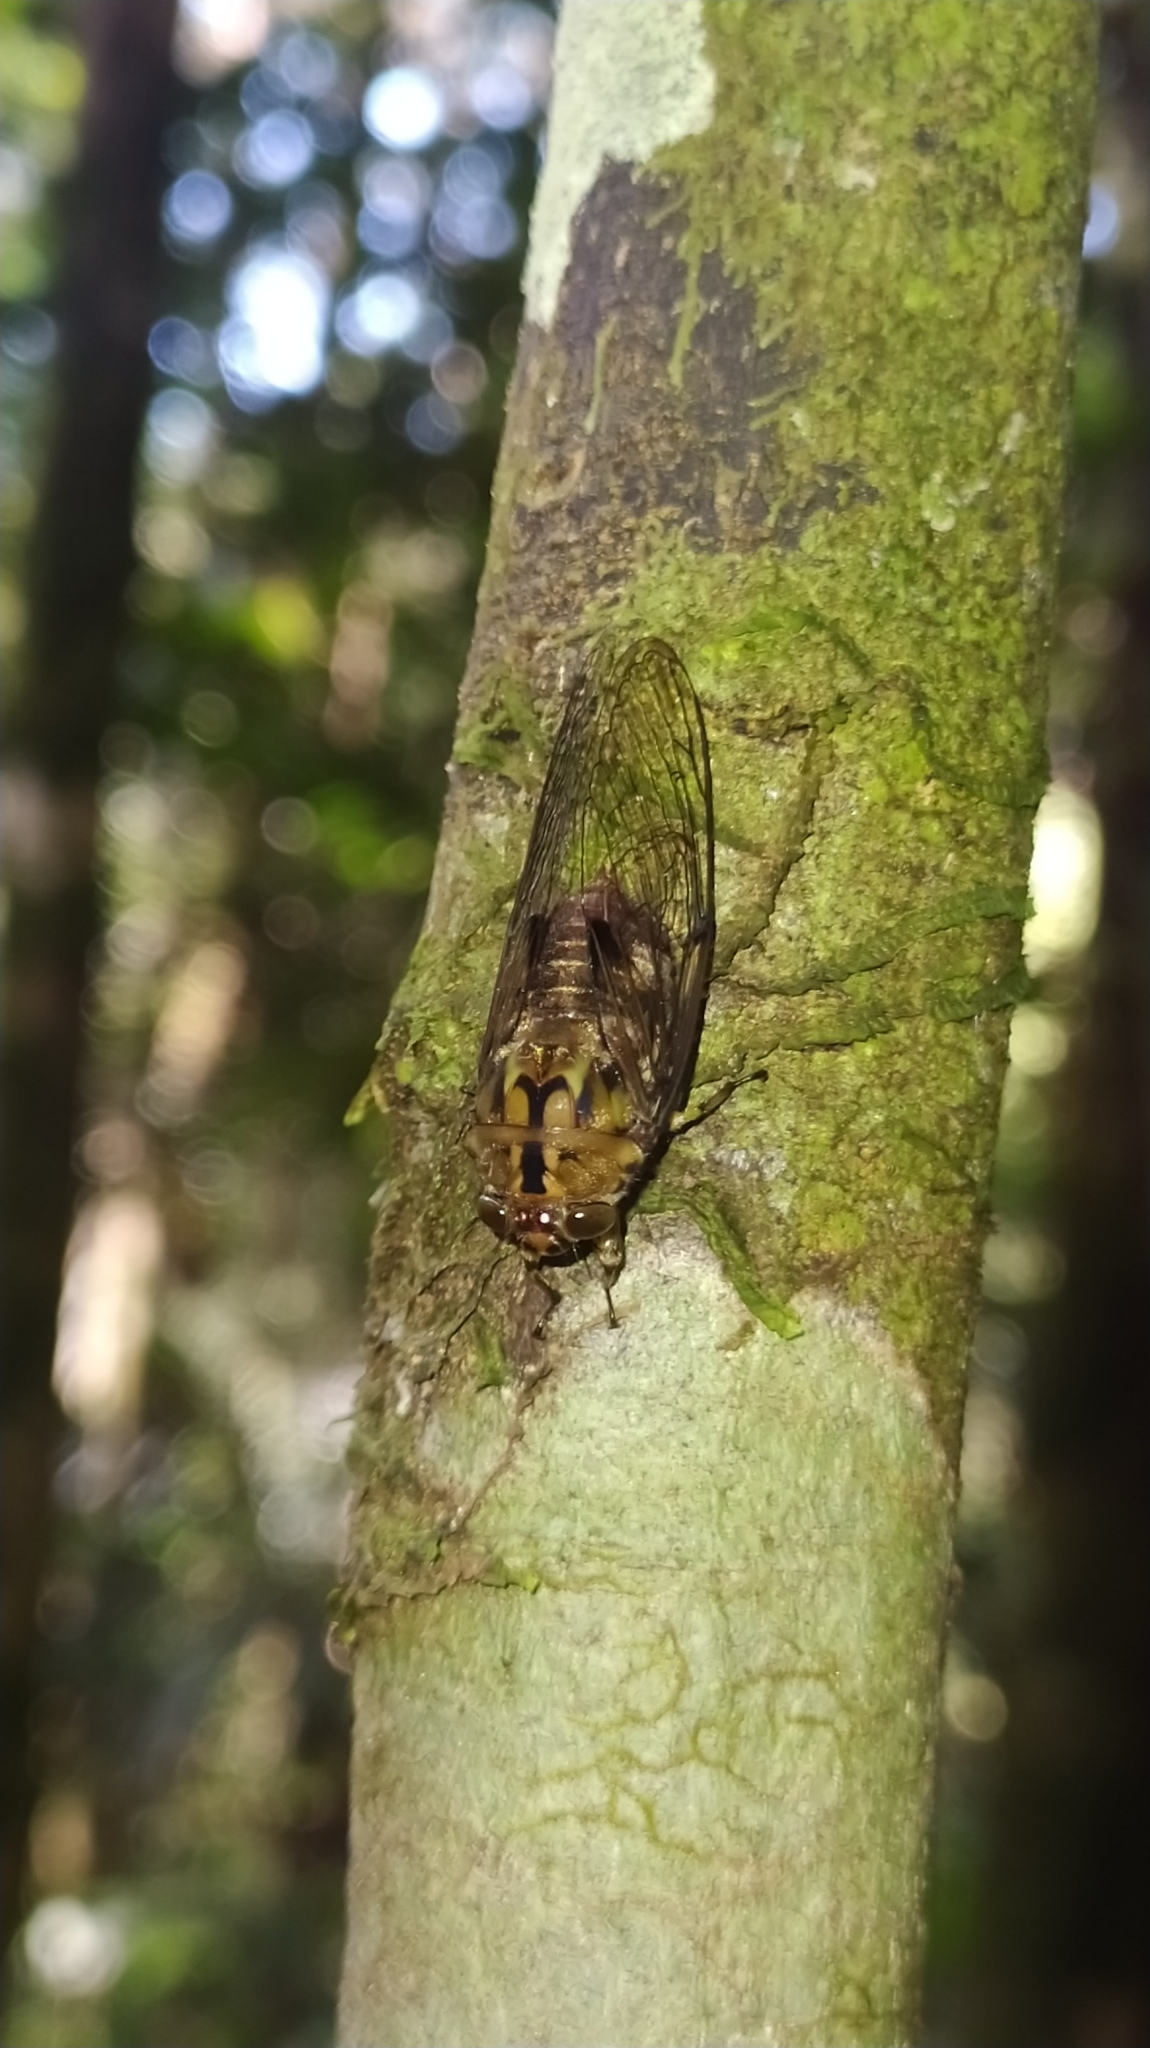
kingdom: Animalia
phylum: Arthropoda
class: Insecta
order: Hemiptera
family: Cicadidae
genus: Carineta
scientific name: Carineta cearana
